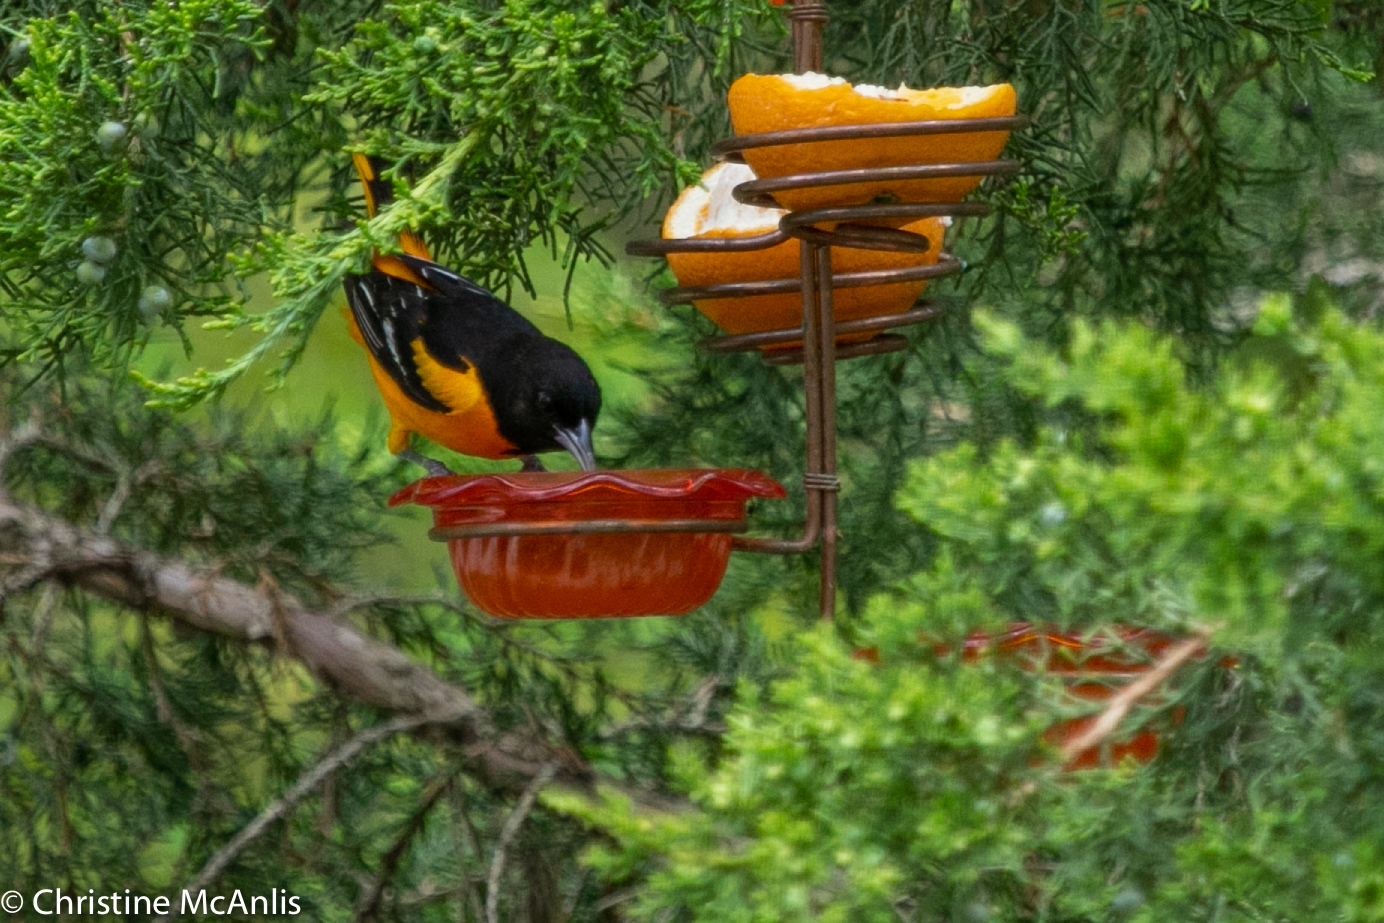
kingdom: Animalia
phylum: Chordata
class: Aves
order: Passeriformes
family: Icteridae
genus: Icterus
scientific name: Icterus galbula
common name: Baltimore oriole
